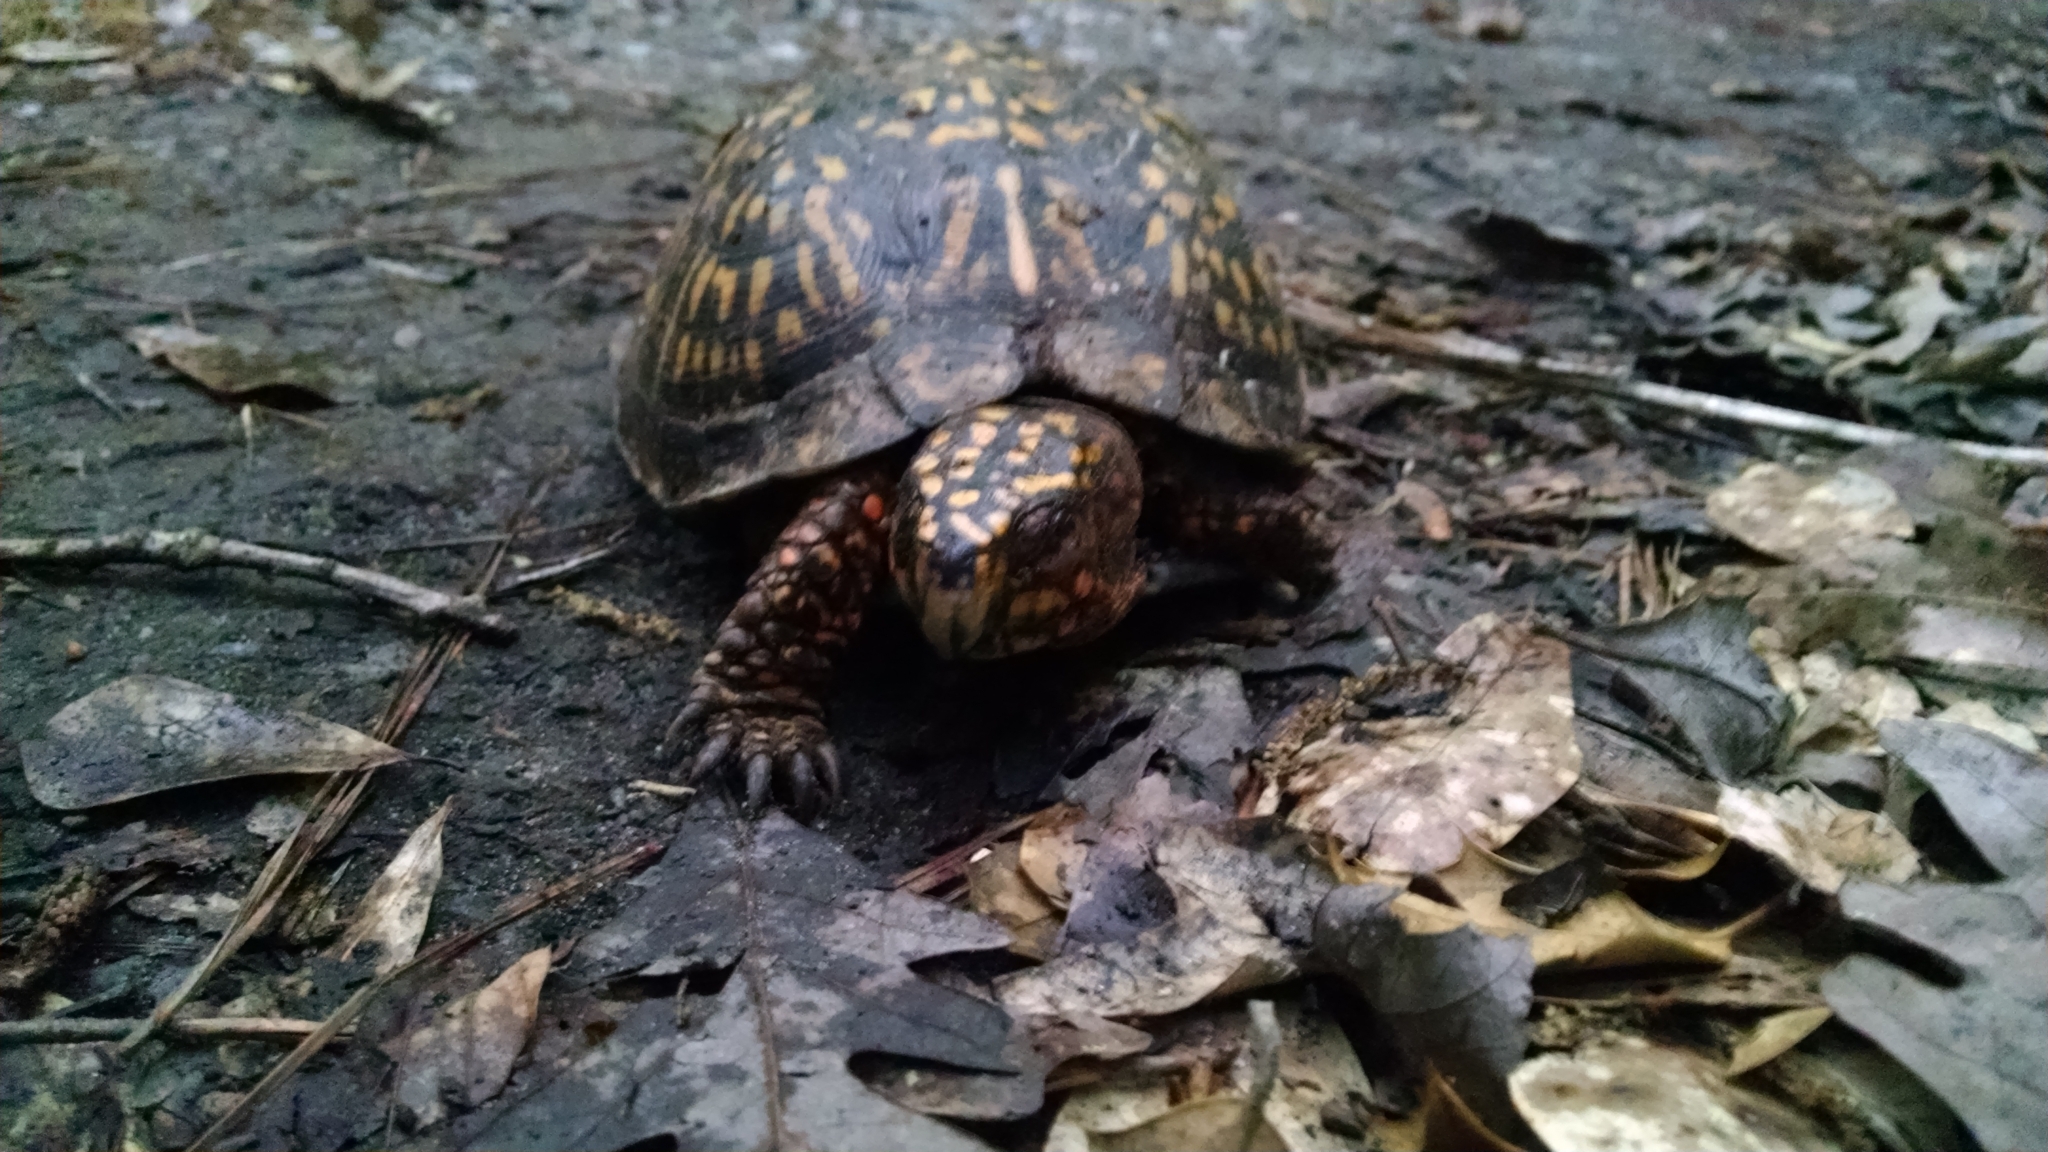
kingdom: Animalia
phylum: Chordata
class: Testudines
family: Emydidae
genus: Terrapene
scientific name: Terrapene carolina
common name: Common box turtle
